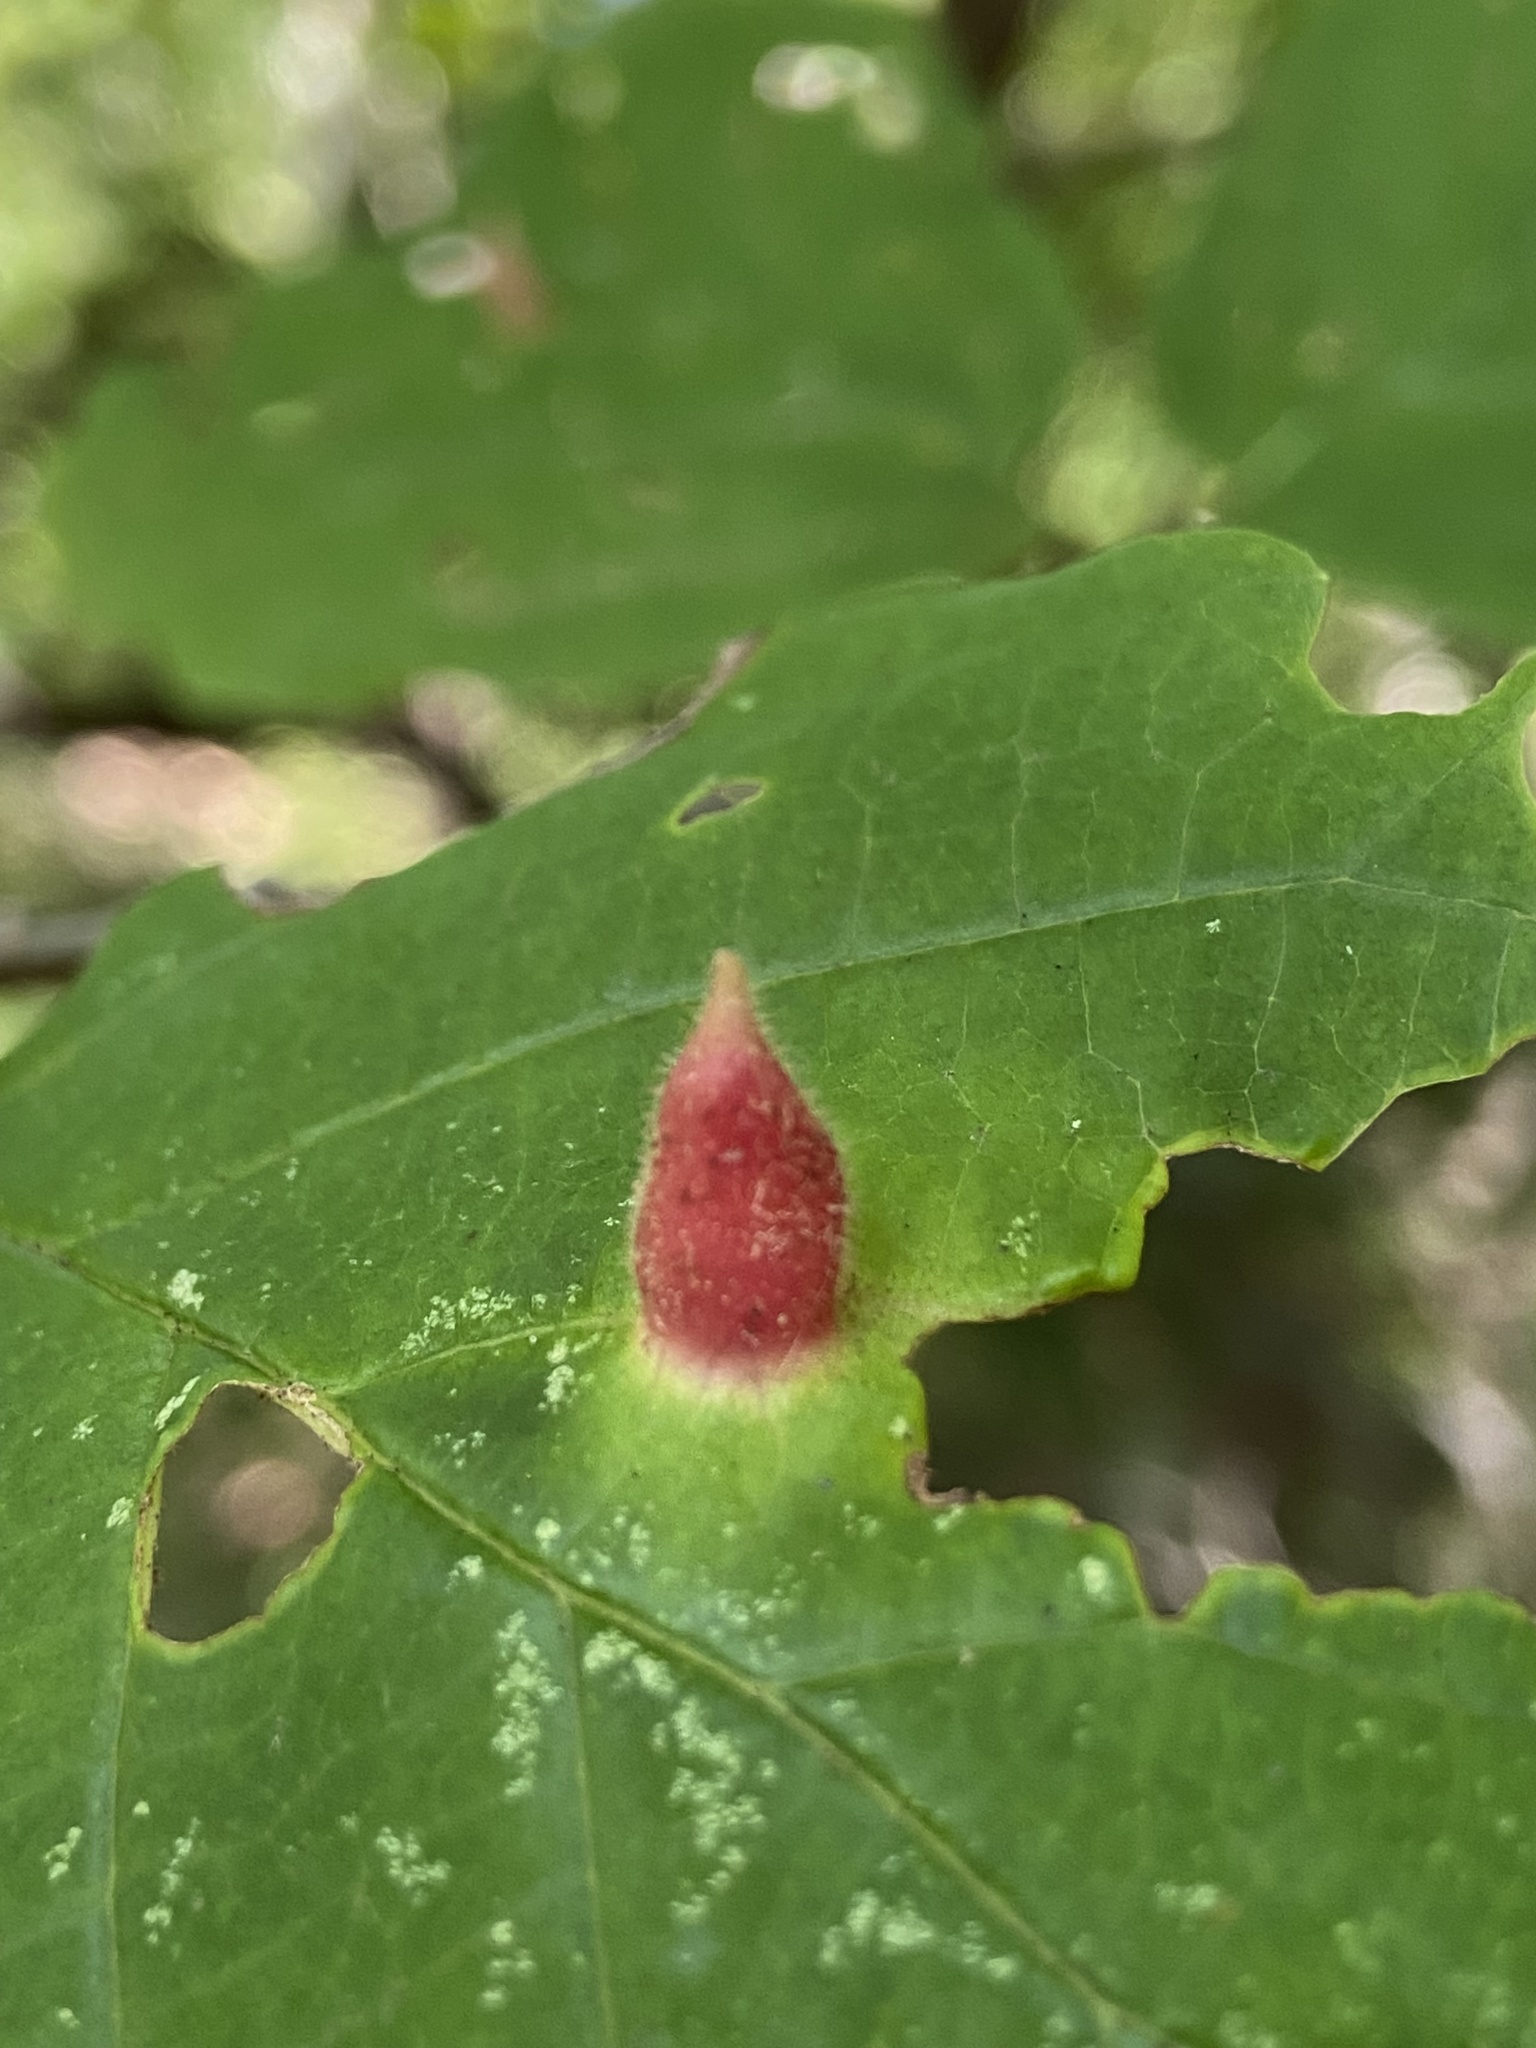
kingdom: Animalia
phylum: Arthropoda
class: Insecta
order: Hemiptera
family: Aphididae
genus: Hormaphis
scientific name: Hormaphis hamamelidis
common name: Witch-hazel cone gall aphid
